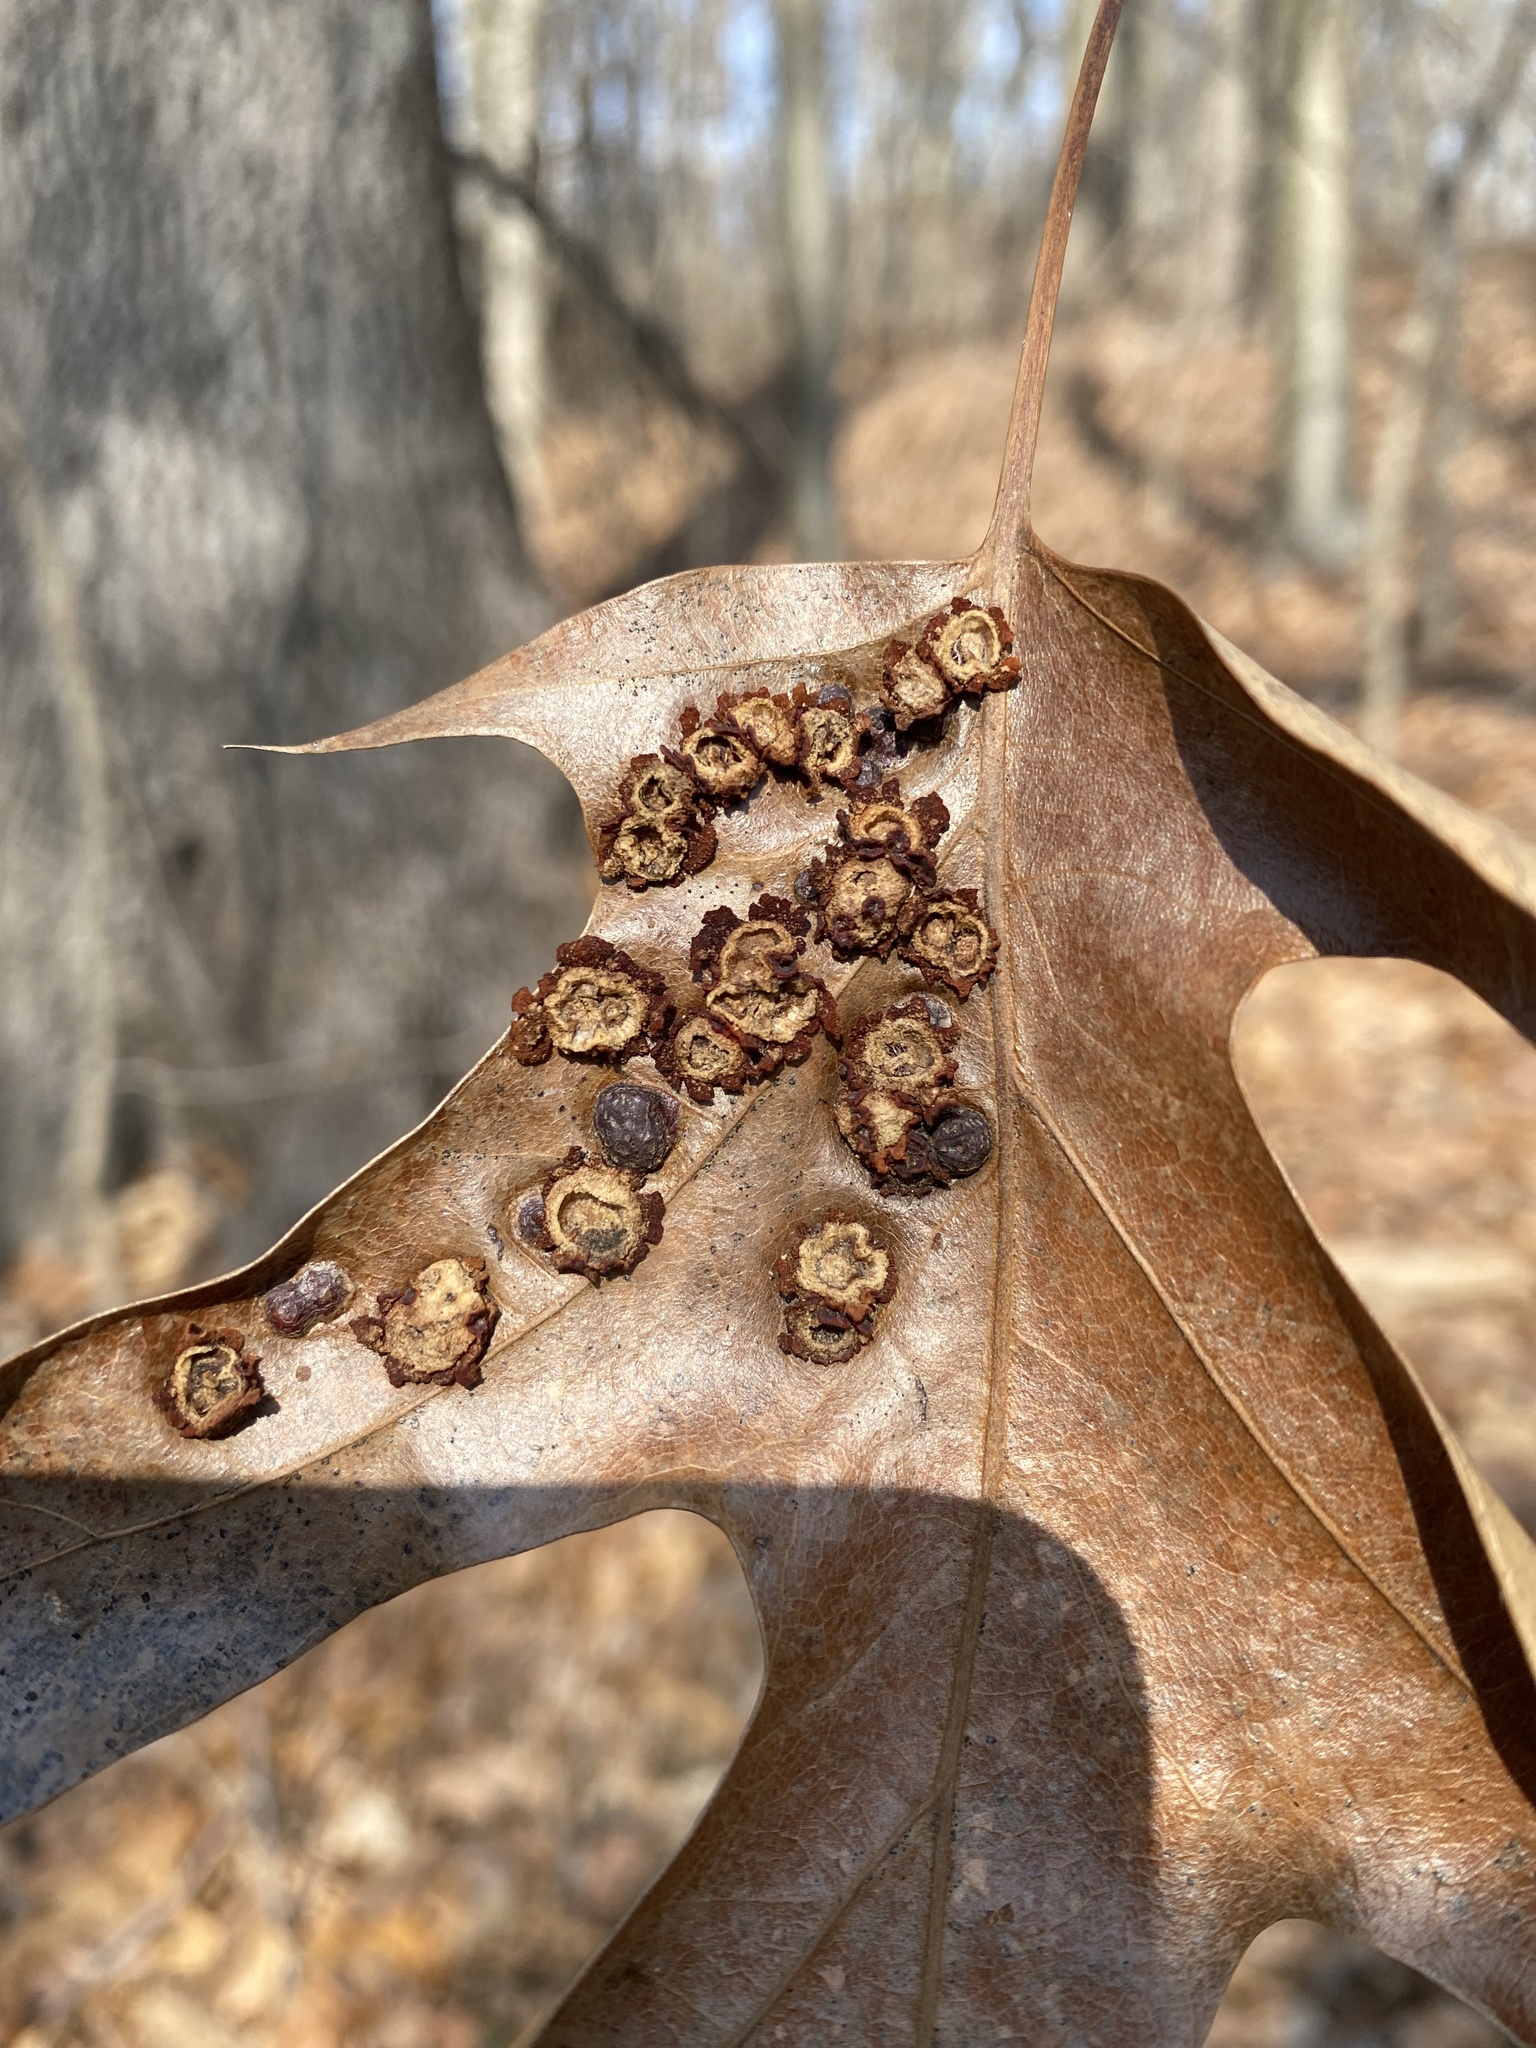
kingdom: Animalia
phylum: Arthropoda
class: Insecta
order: Diptera
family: Cecidomyiidae
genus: Polystepha
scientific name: Polystepha pilulae
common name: Oak leaf gall midge
